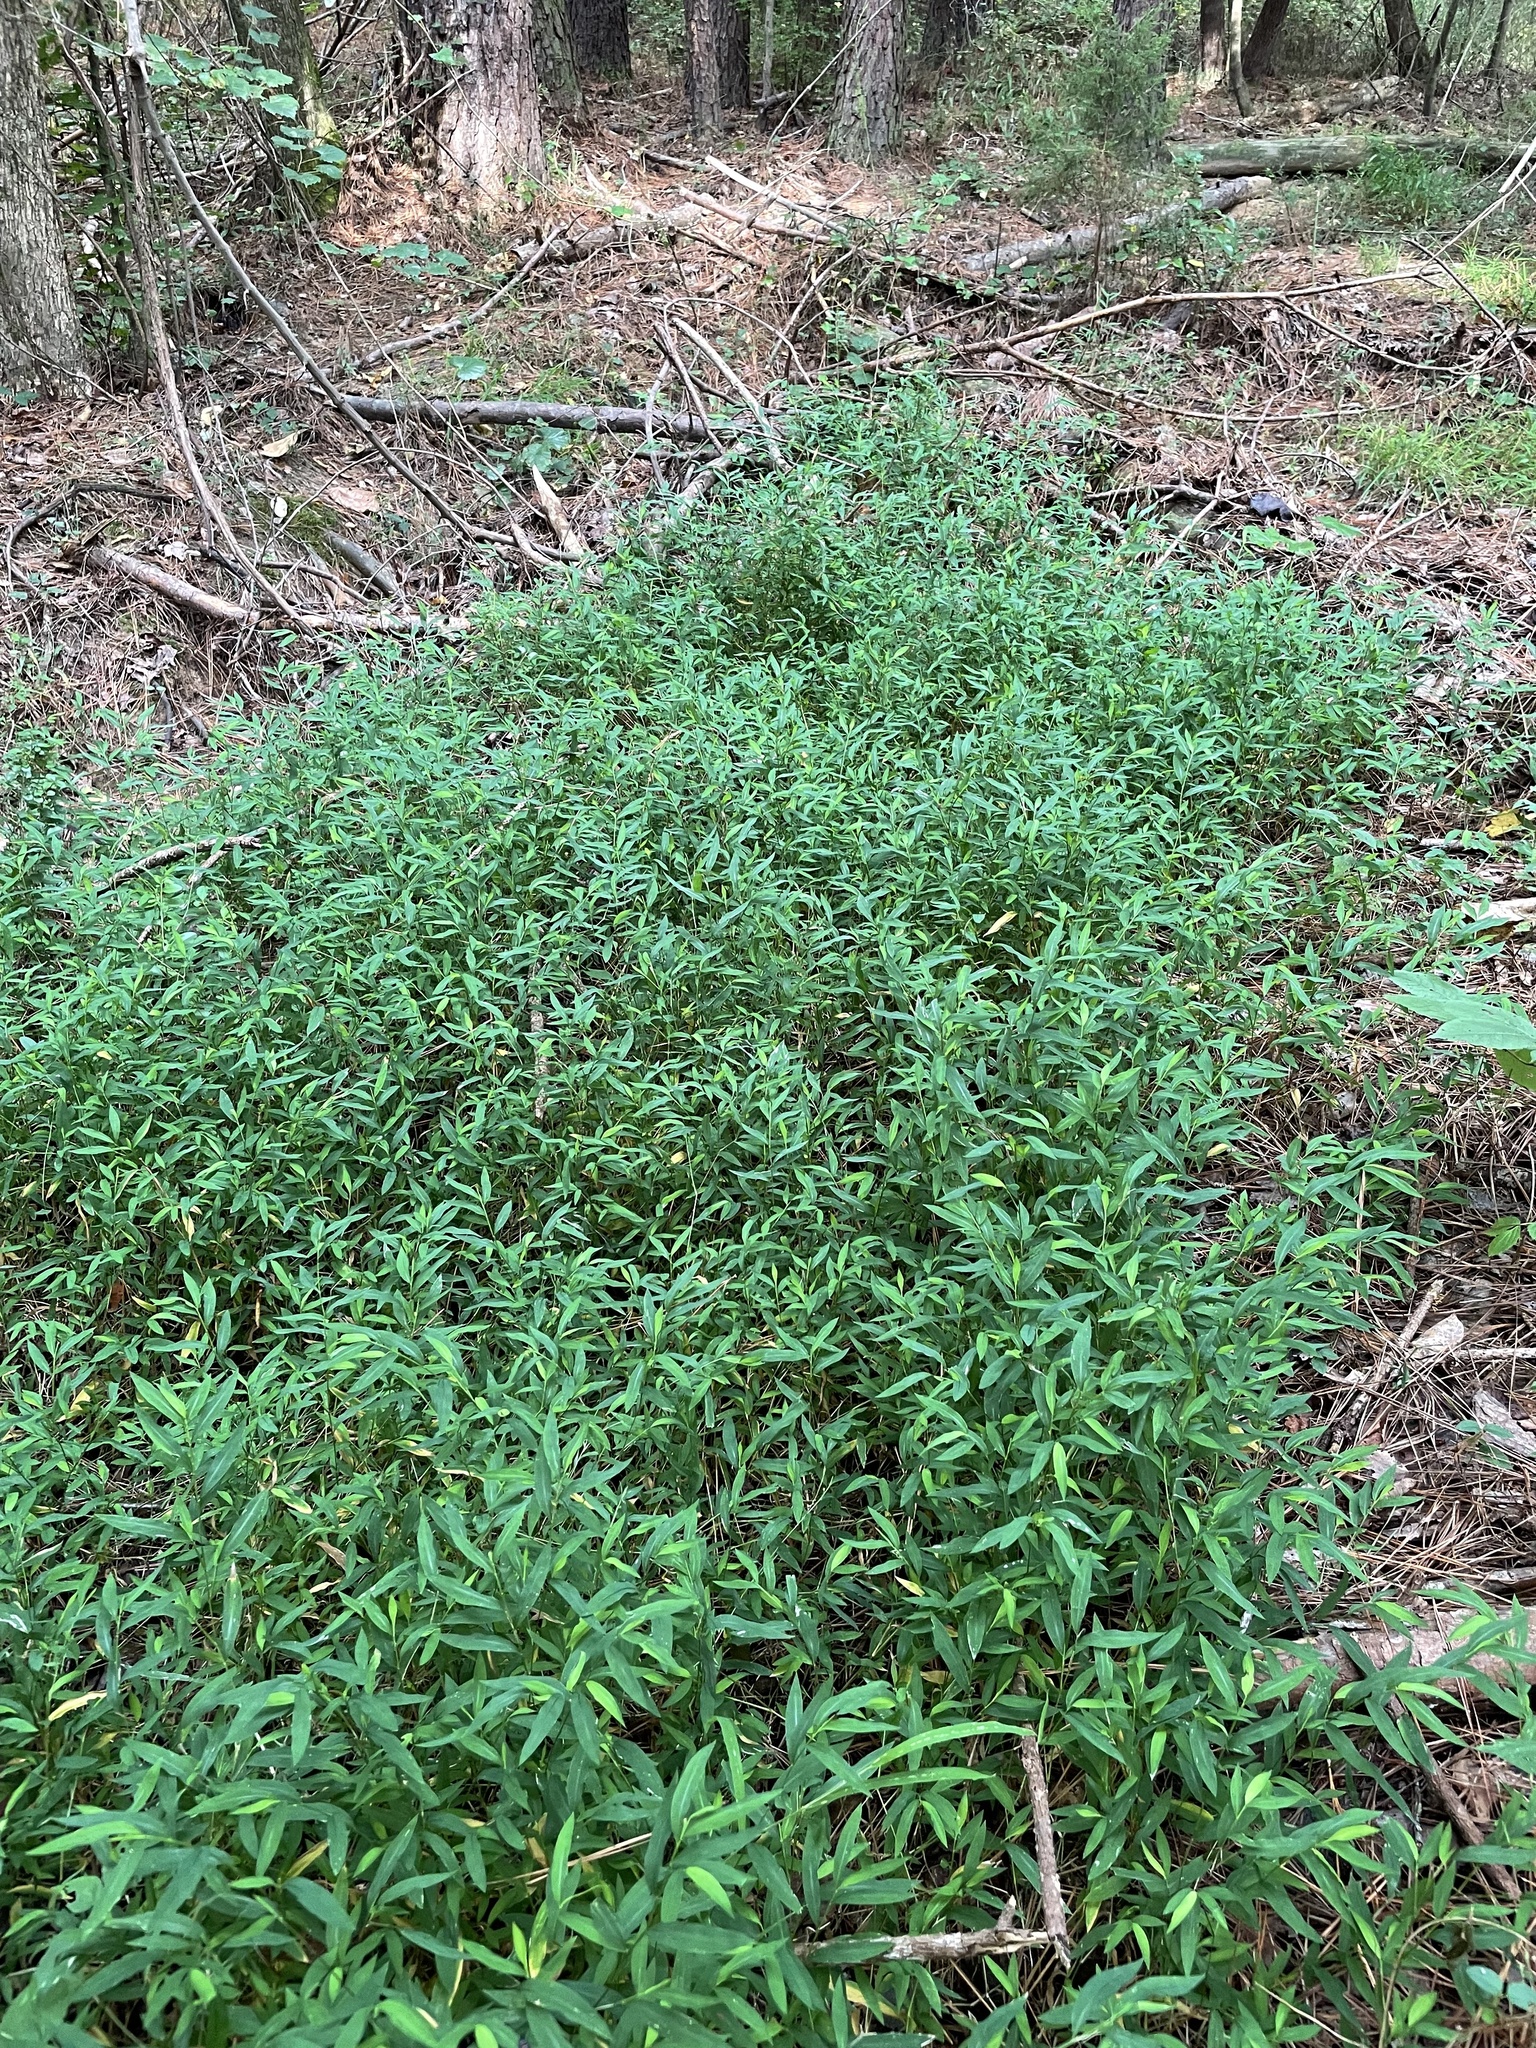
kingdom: Plantae
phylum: Tracheophyta
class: Liliopsida
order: Poales
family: Poaceae
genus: Microstegium
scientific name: Microstegium vimineum
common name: Japanese stiltgrass
